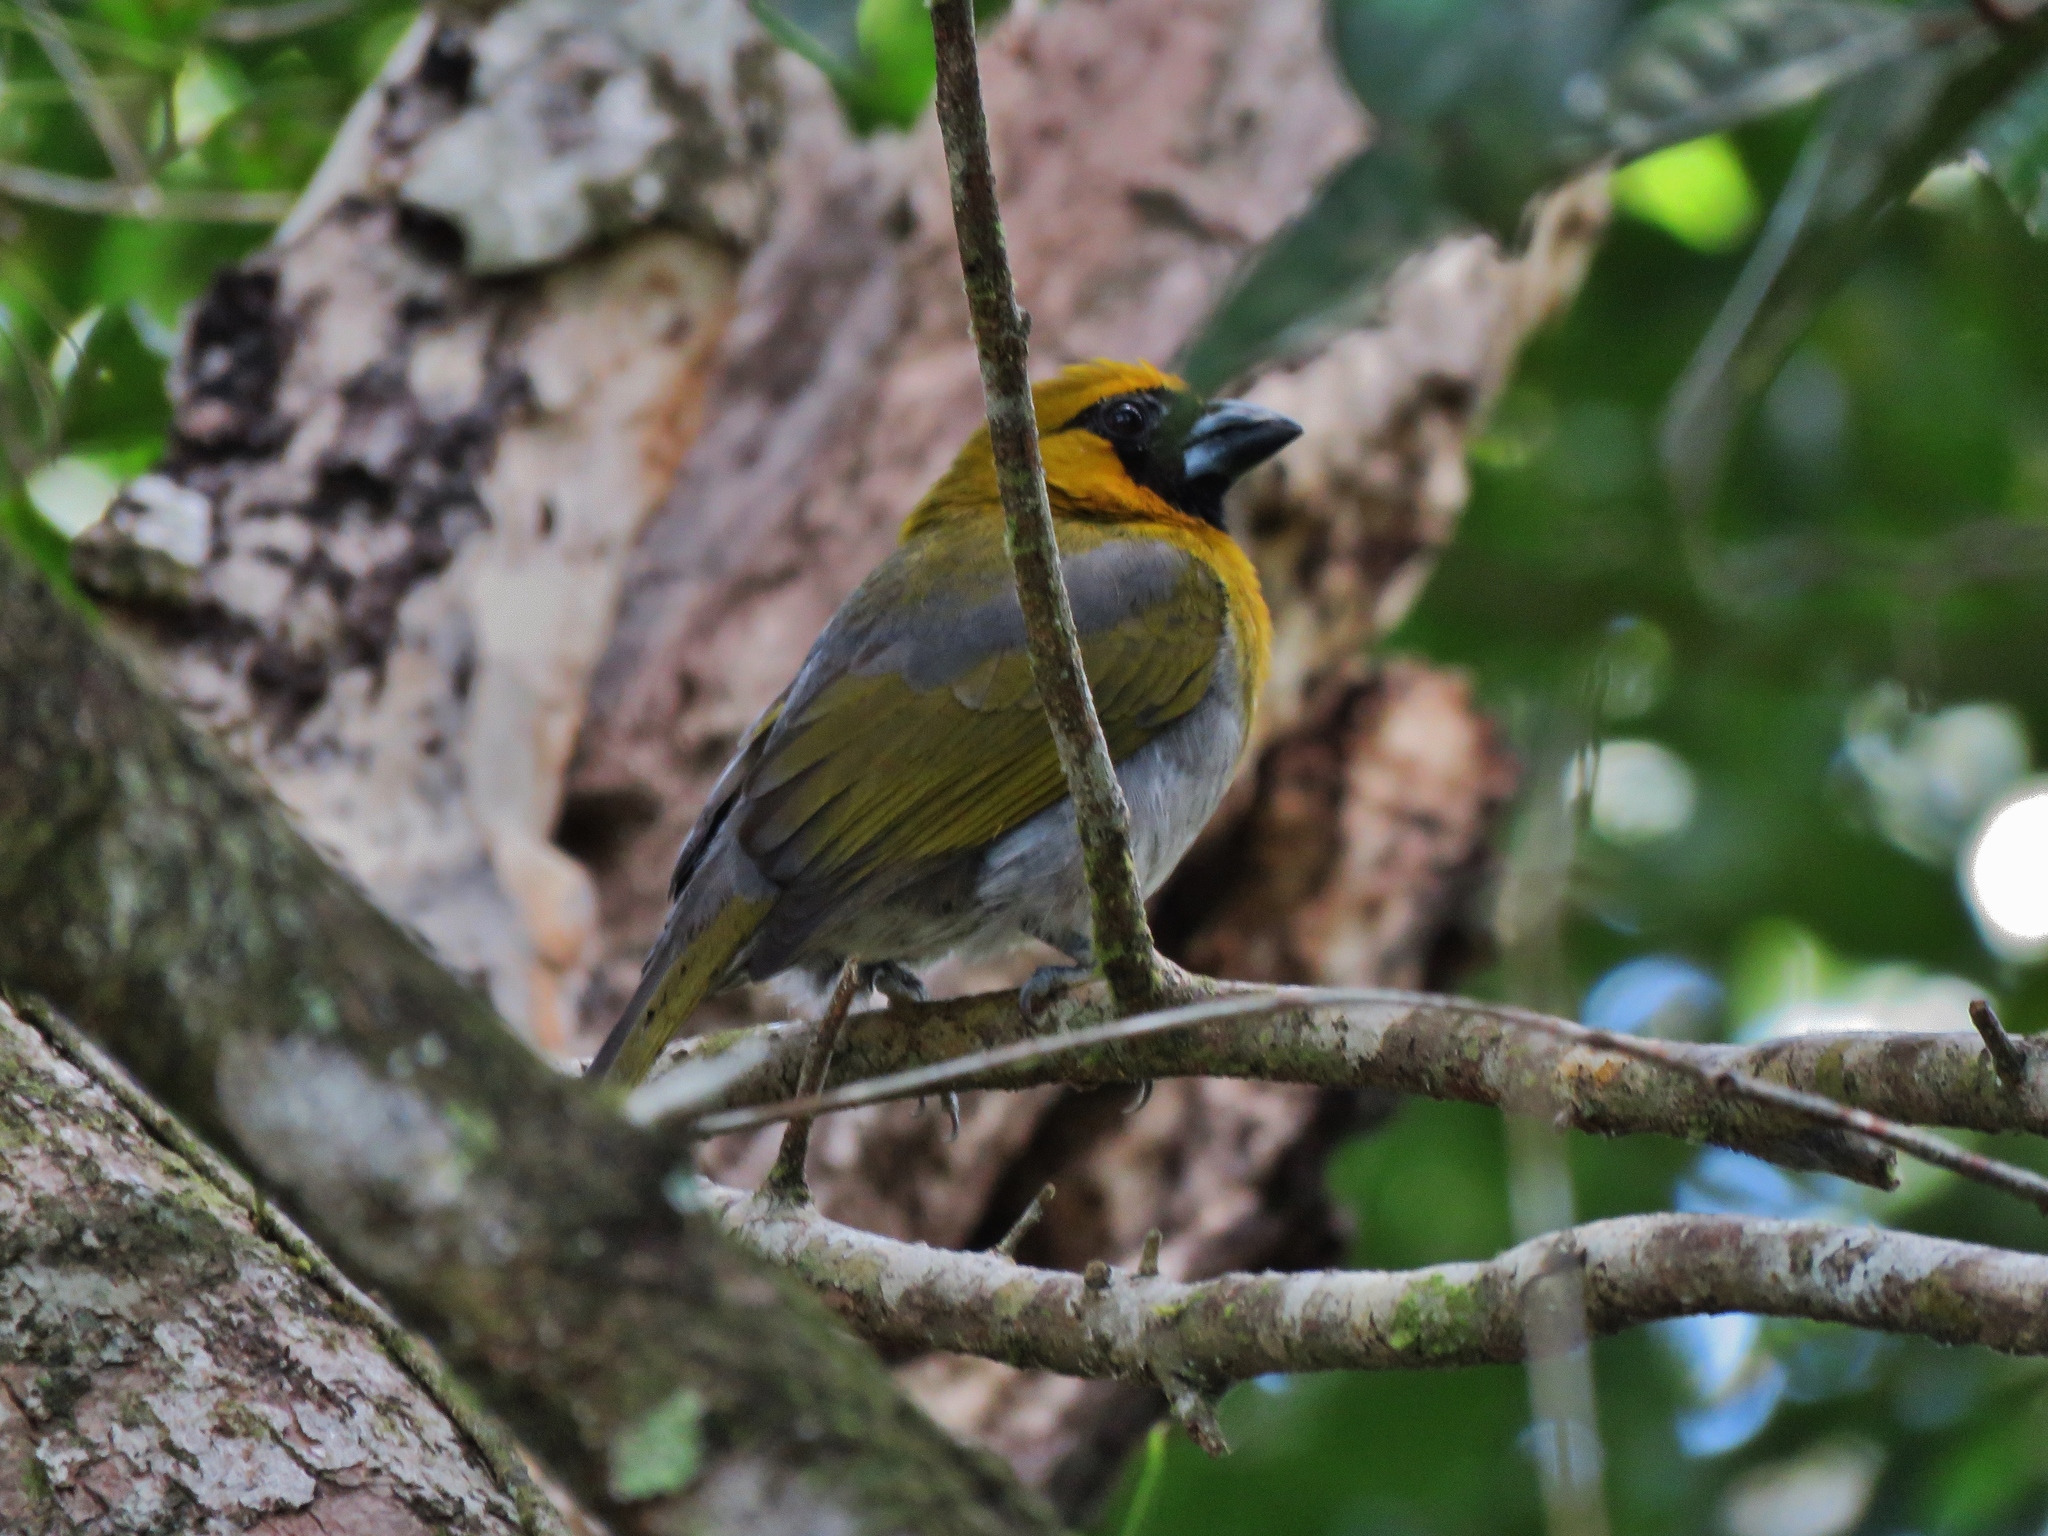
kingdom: Animalia
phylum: Chordata
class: Aves
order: Passeriformes
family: Cardinalidae
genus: Caryothraustes
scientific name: Caryothraustes poliogaster
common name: Black-faced grosbeak
